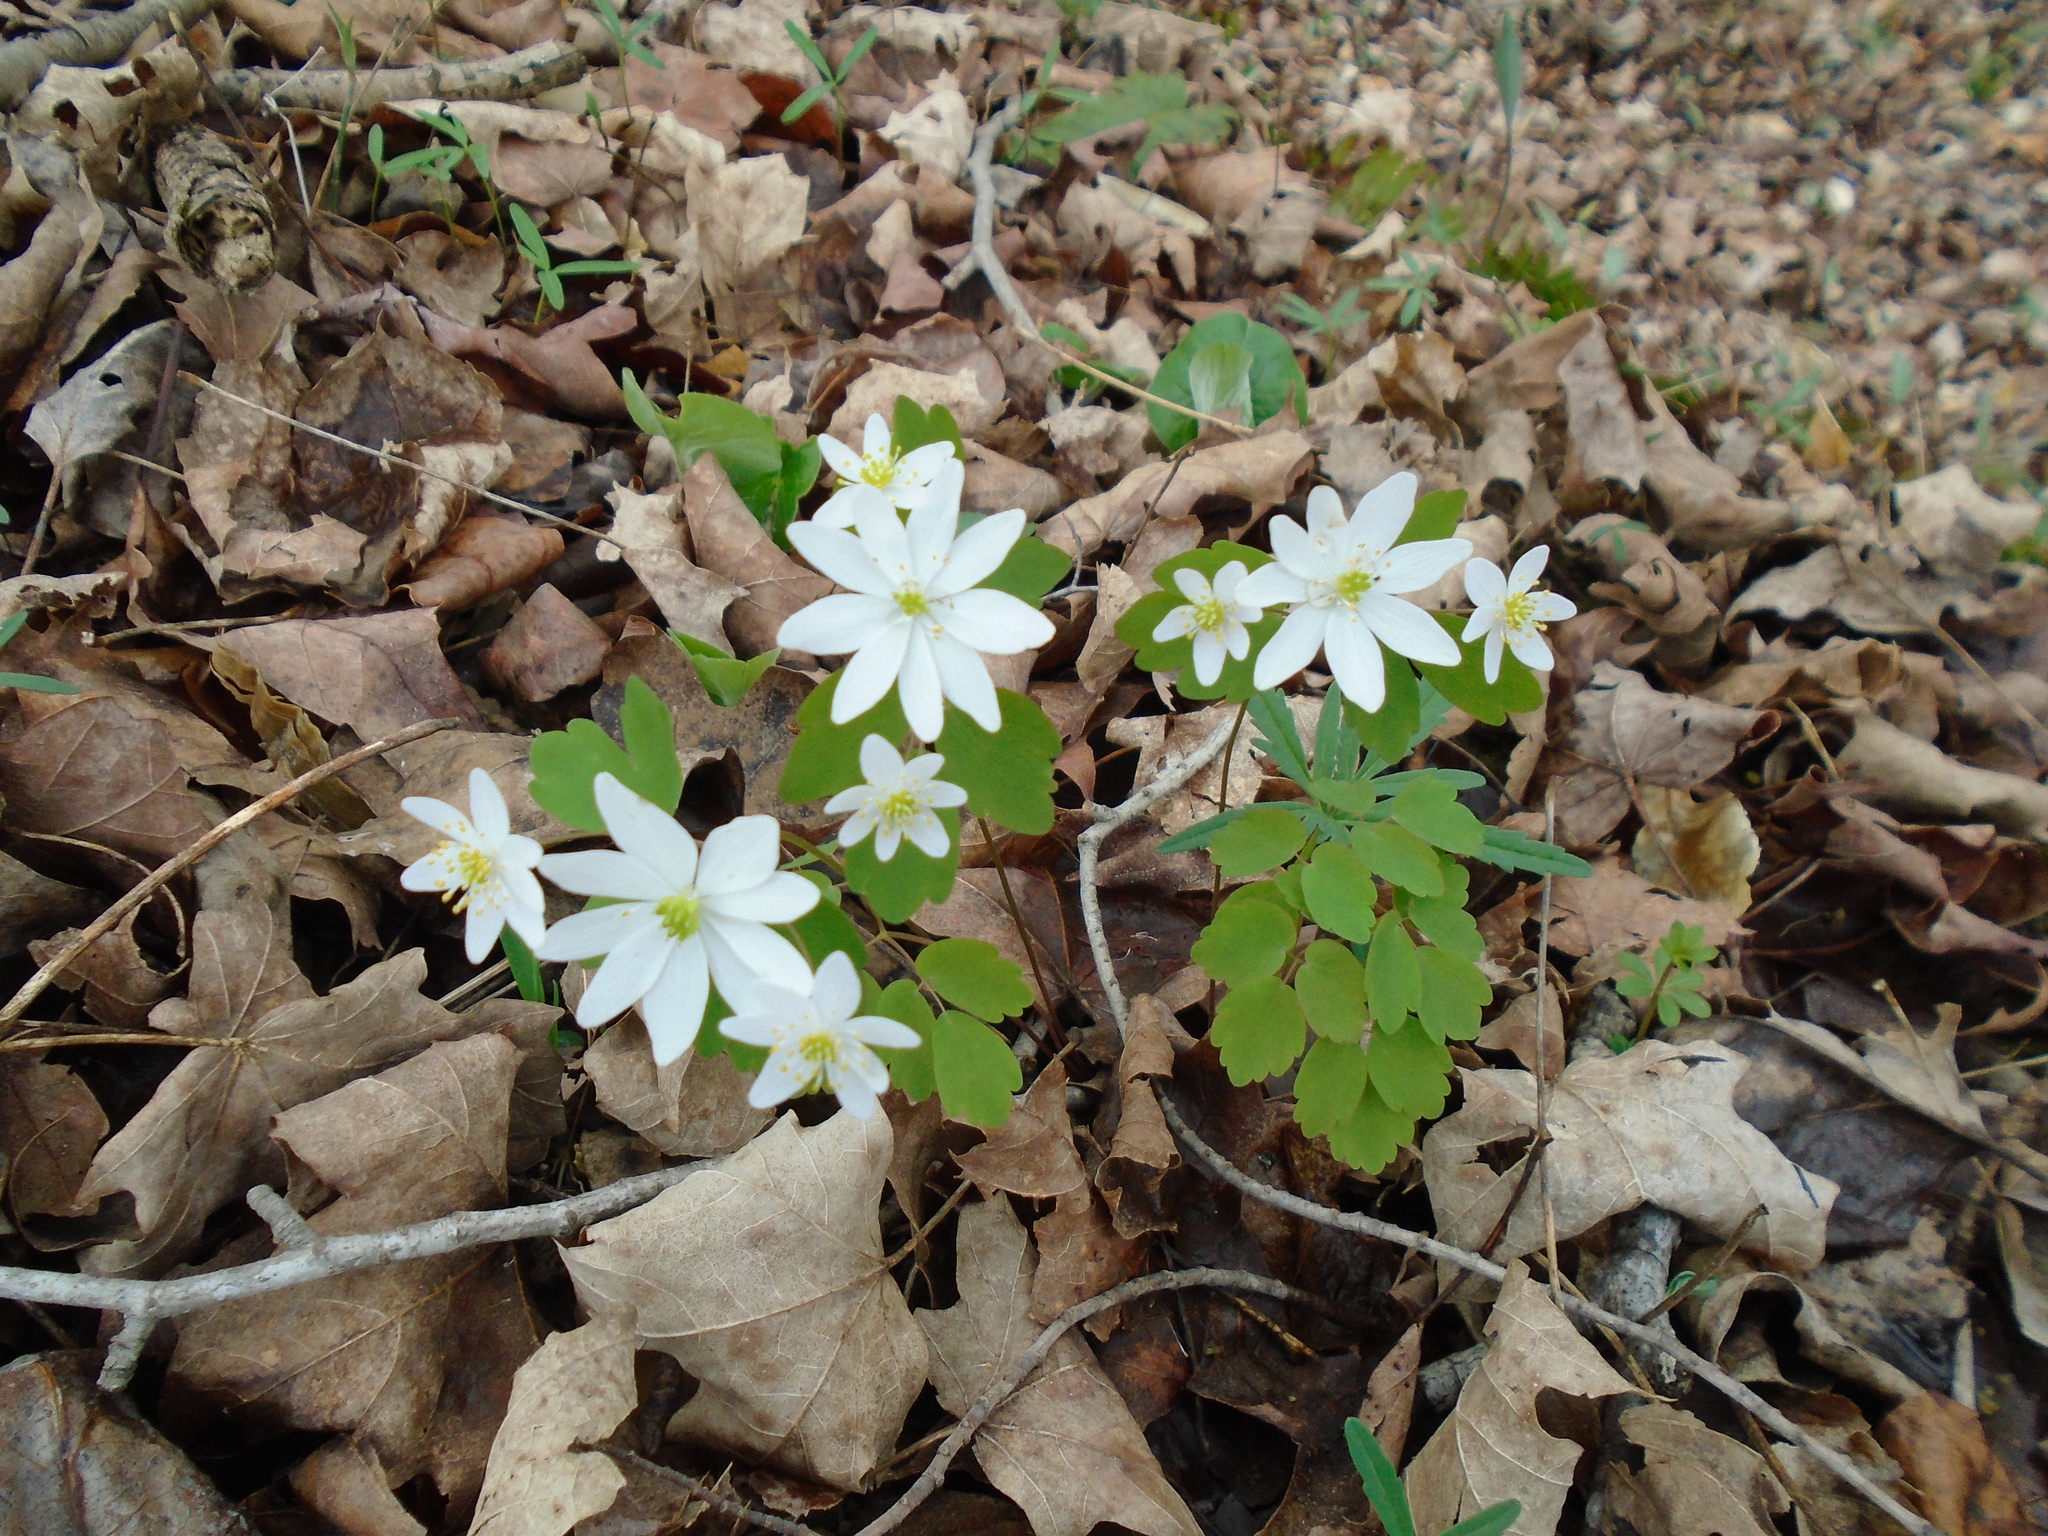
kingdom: Plantae
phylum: Tracheophyta
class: Magnoliopsida
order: Ranunculales
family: Ranunculaceae
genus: Thalictrum
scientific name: Thalictrum thalictroides
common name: Rue-anemone
